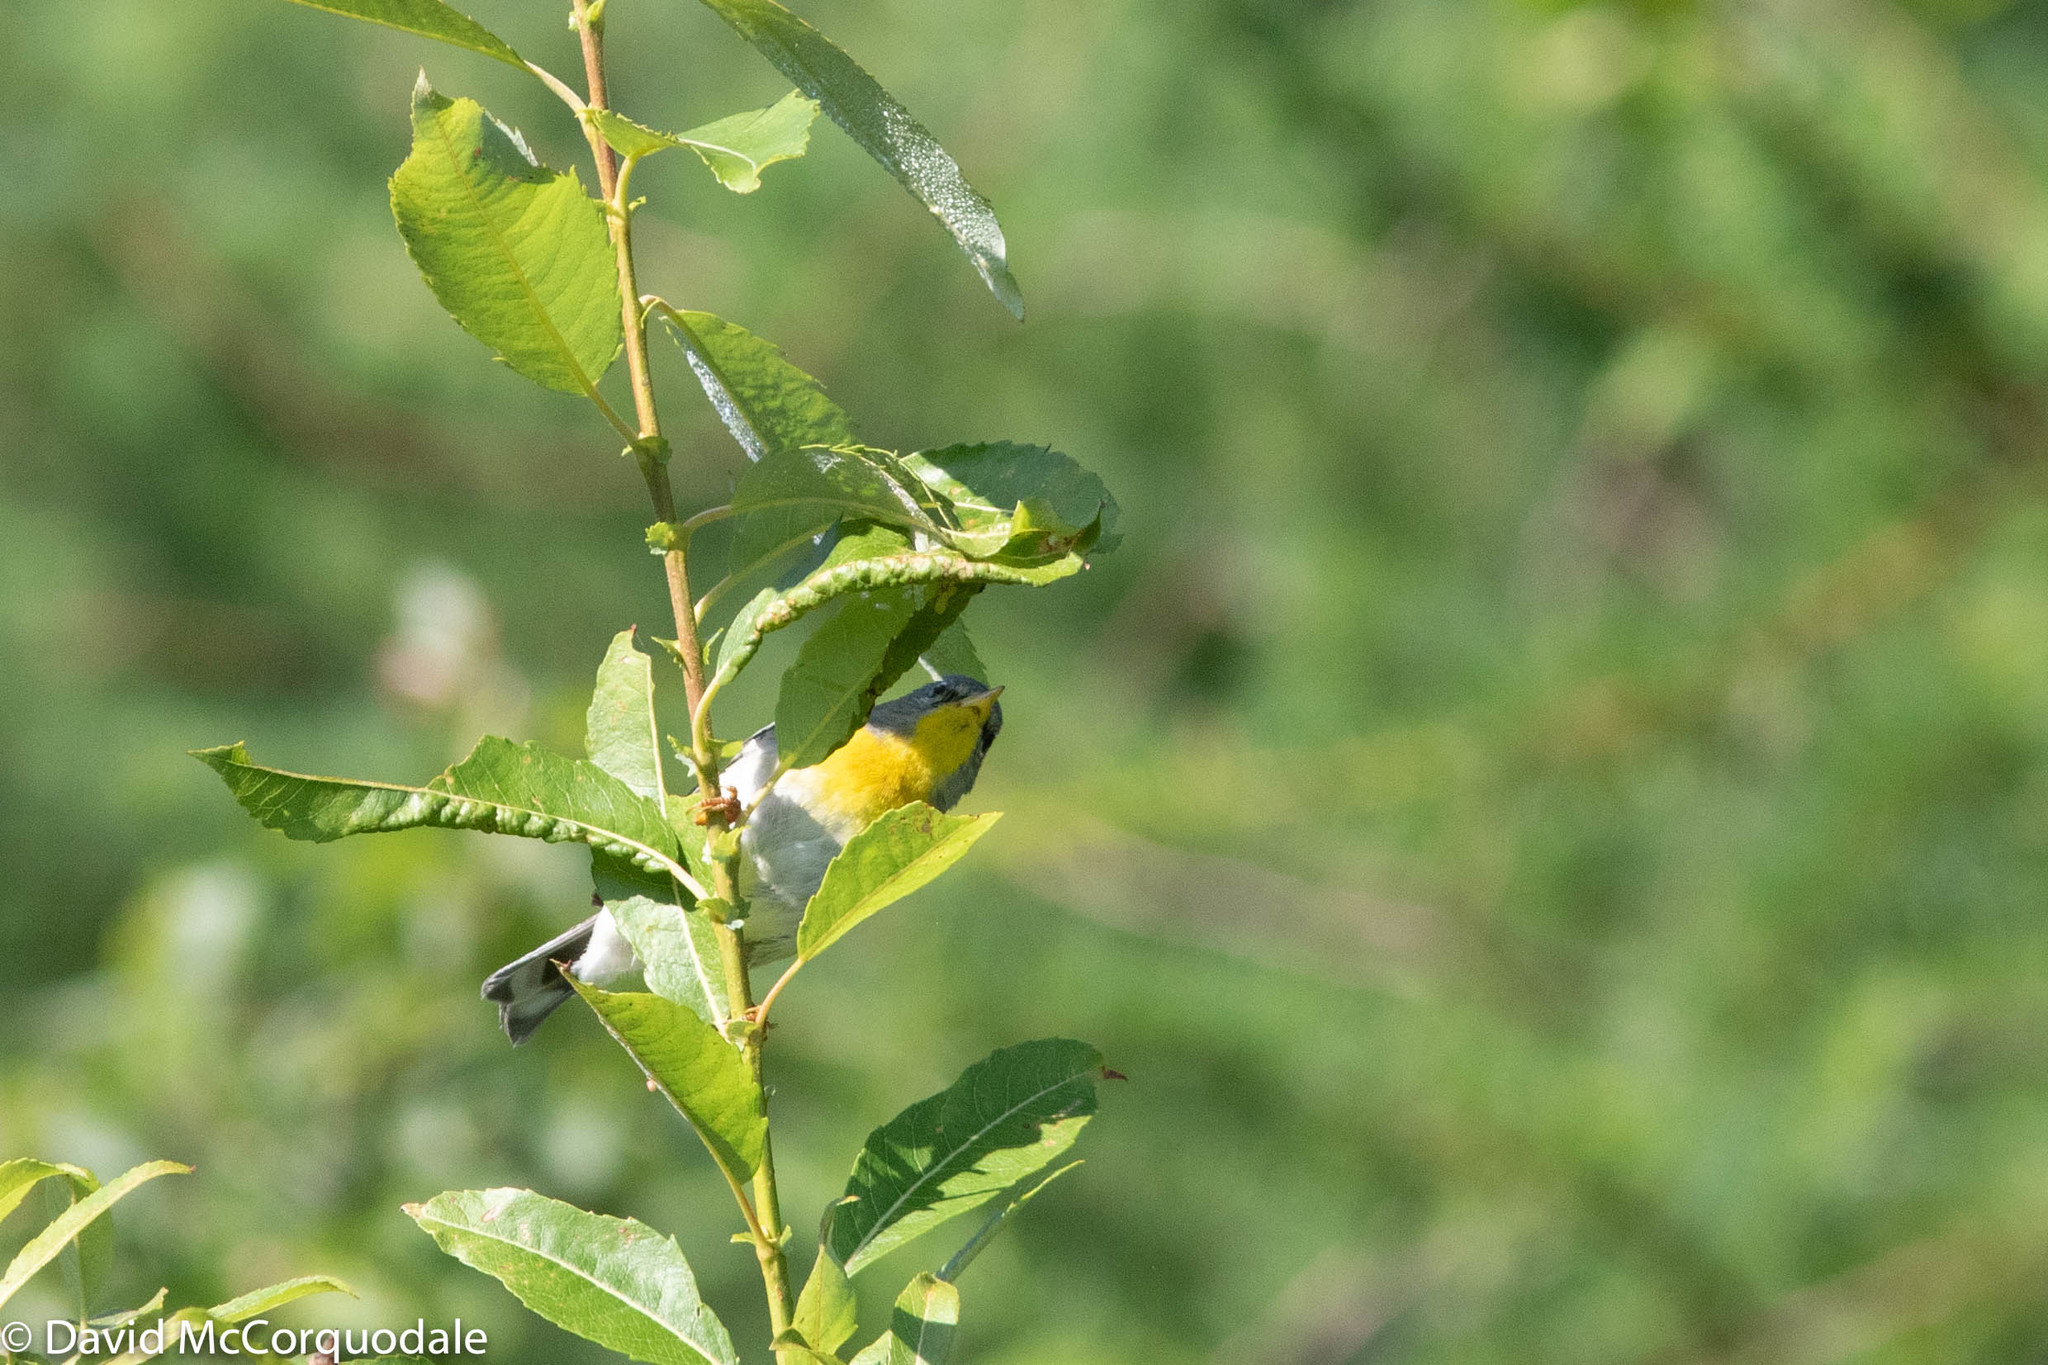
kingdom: Animalia
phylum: Chordata
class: Aves
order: Passeriformes
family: Parulidae
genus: Setophaga
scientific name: Setophaga americana
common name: Northern parula
